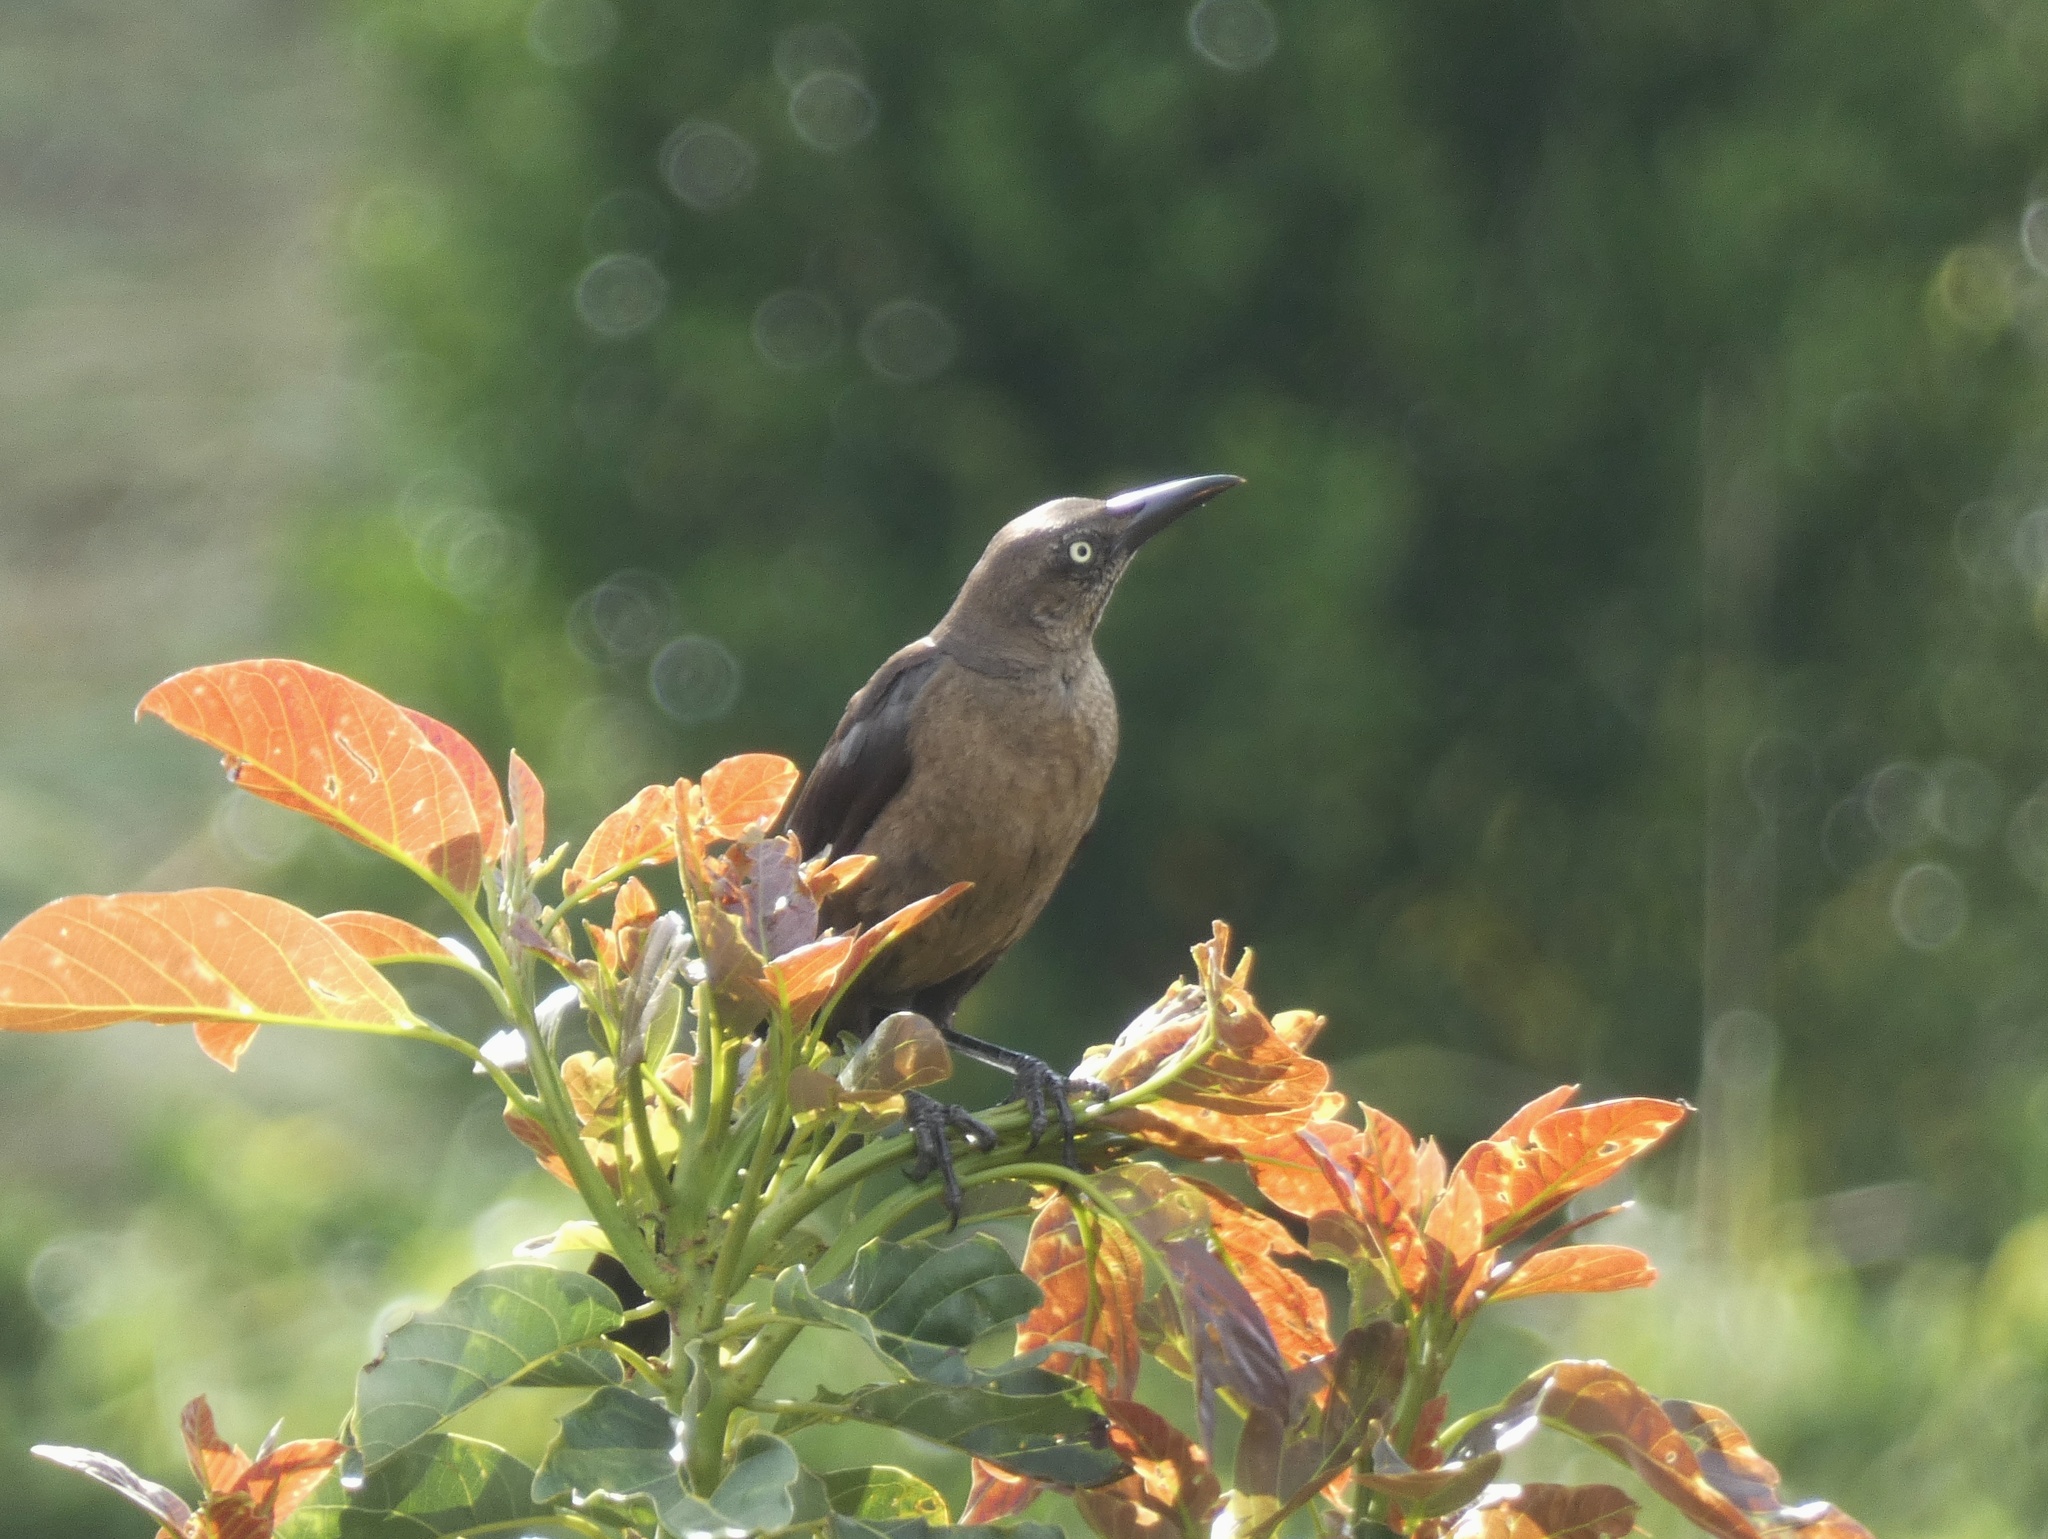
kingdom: Animalia
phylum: Chordata
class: Aves
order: Passeriformes
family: Icteridae
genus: Quiscalus
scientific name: Quiscalus mexicanus
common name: Great-tailed grackle
